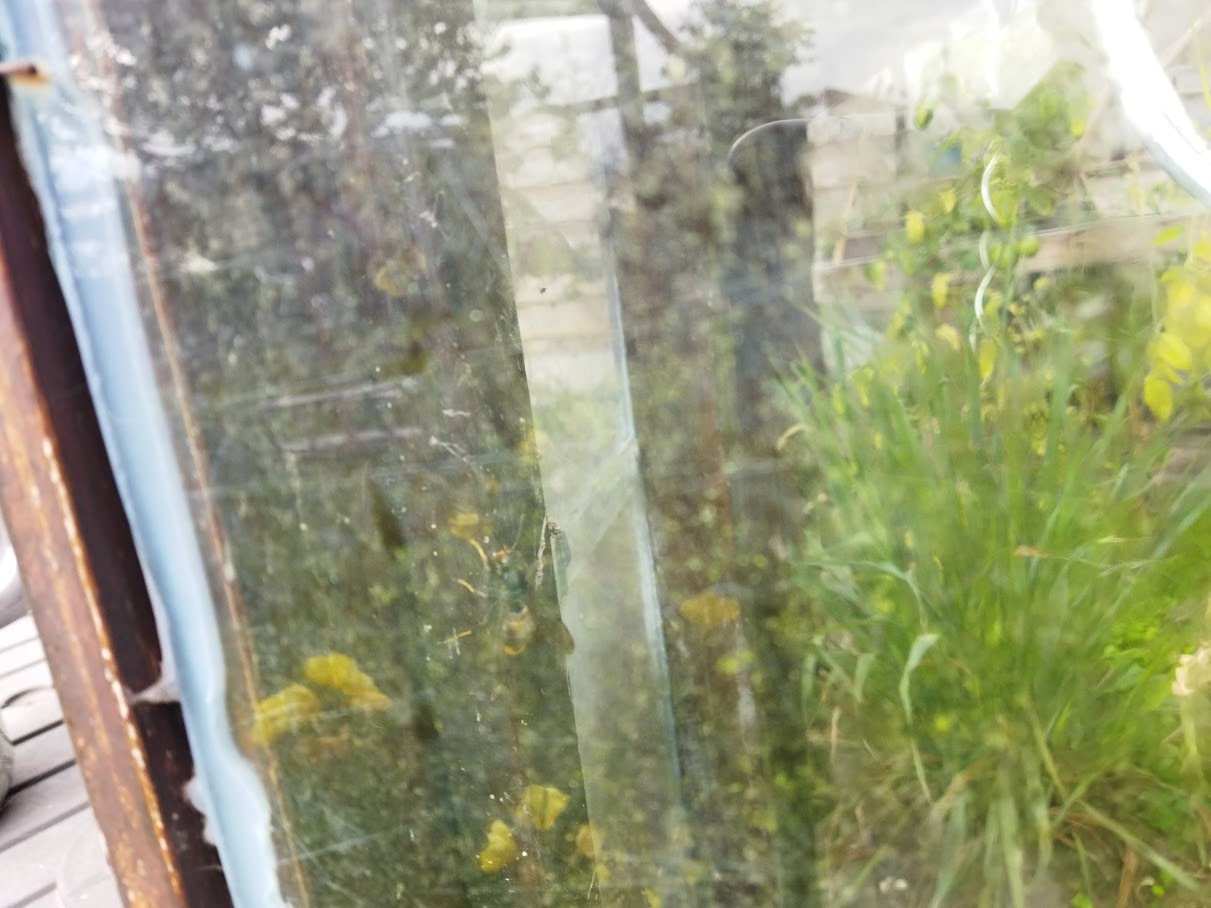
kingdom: Animalia
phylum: Arthropoda
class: Insecta
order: Hymenoptera
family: Vespidae
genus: Vespa
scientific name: Vespa velutina
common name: Asian hornet
